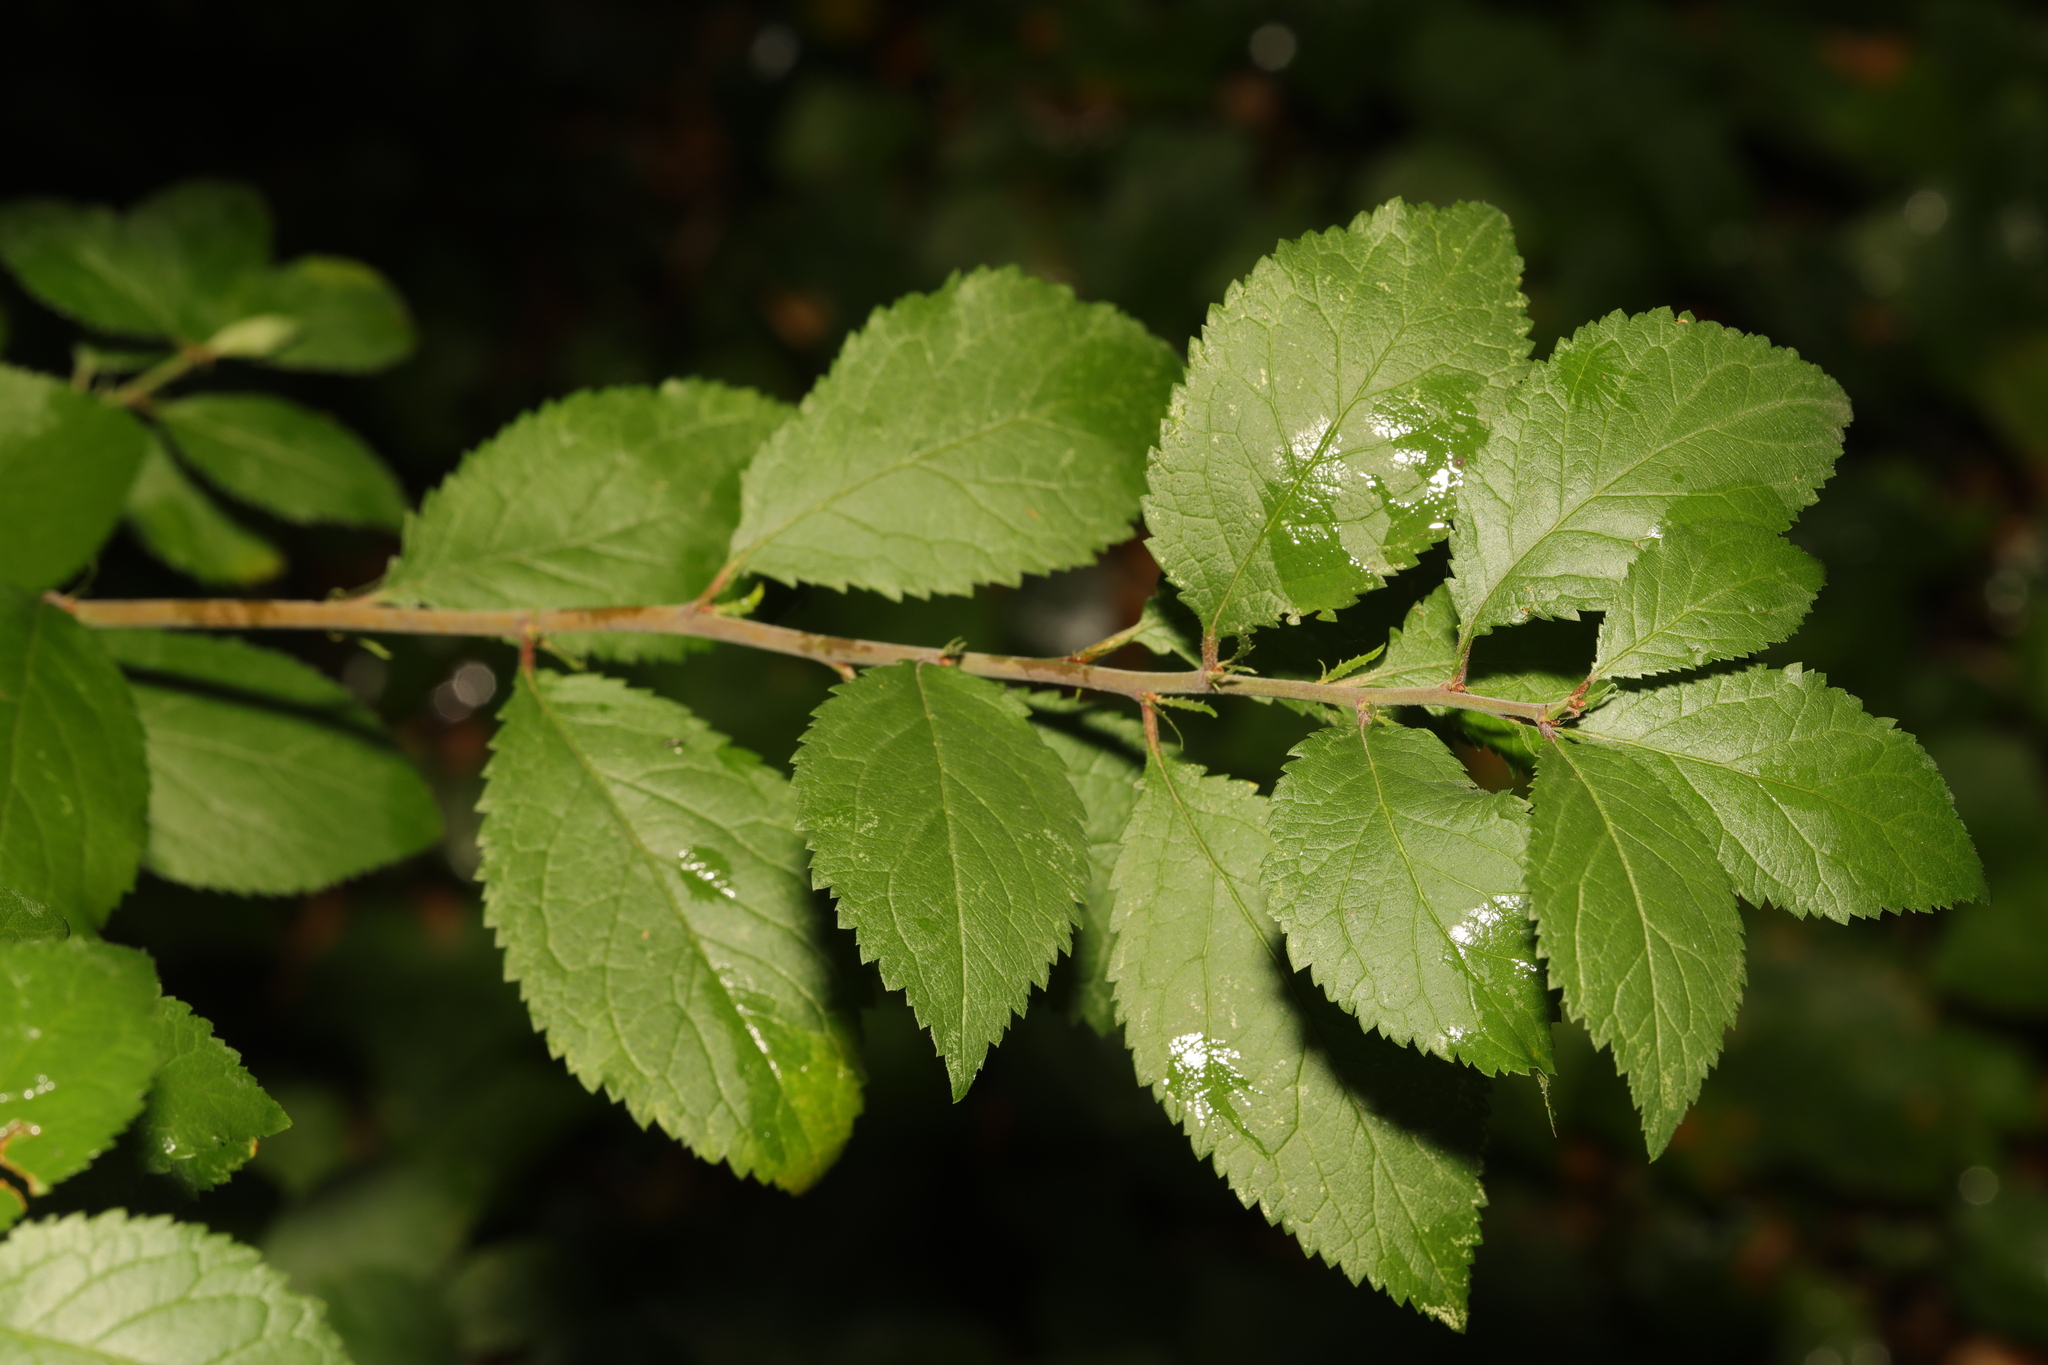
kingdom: Plantae
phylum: Tracheophyta
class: Magnoliopsida
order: Rosales
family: Rosaceae
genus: Prunus
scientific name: Prunus spinosa
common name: Blackthorn
